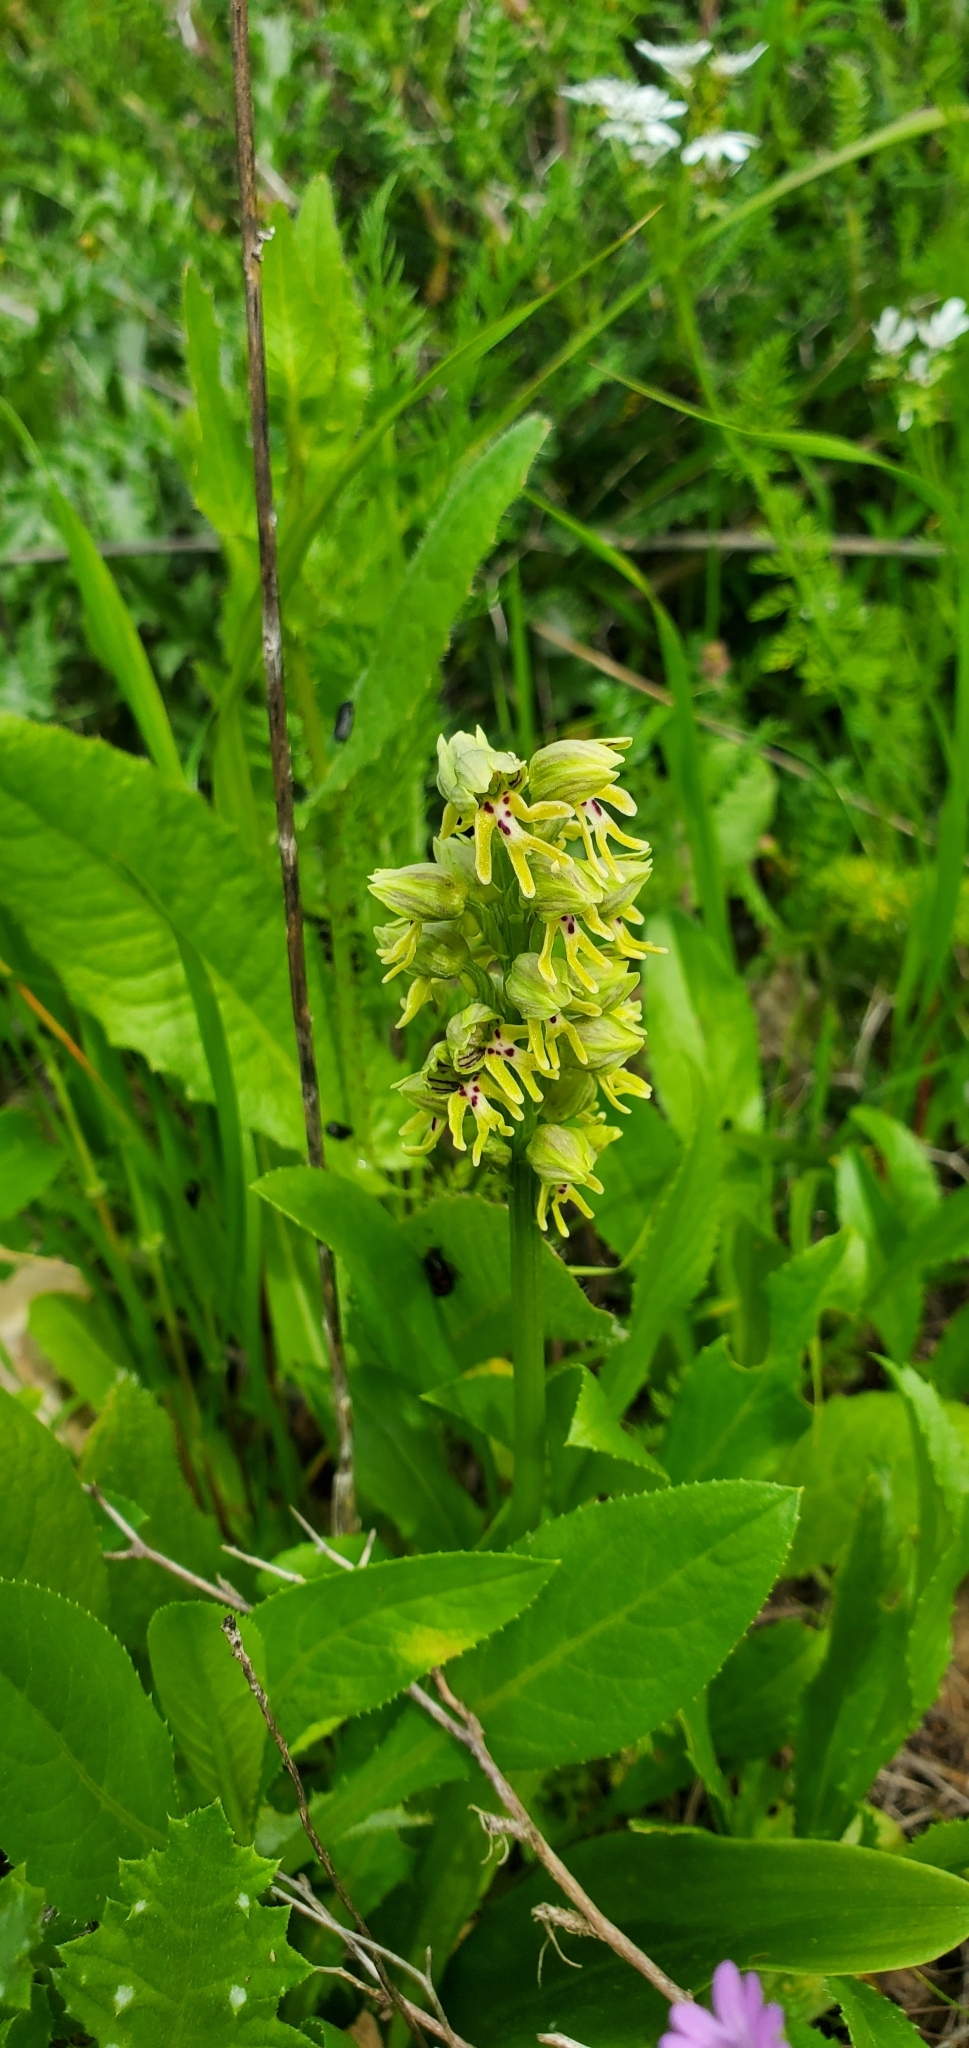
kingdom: Plantae
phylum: Tracheophyta
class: Liliopsida
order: Asparagales
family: Orchidaceae
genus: Orchis
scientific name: Orchis galilaea
